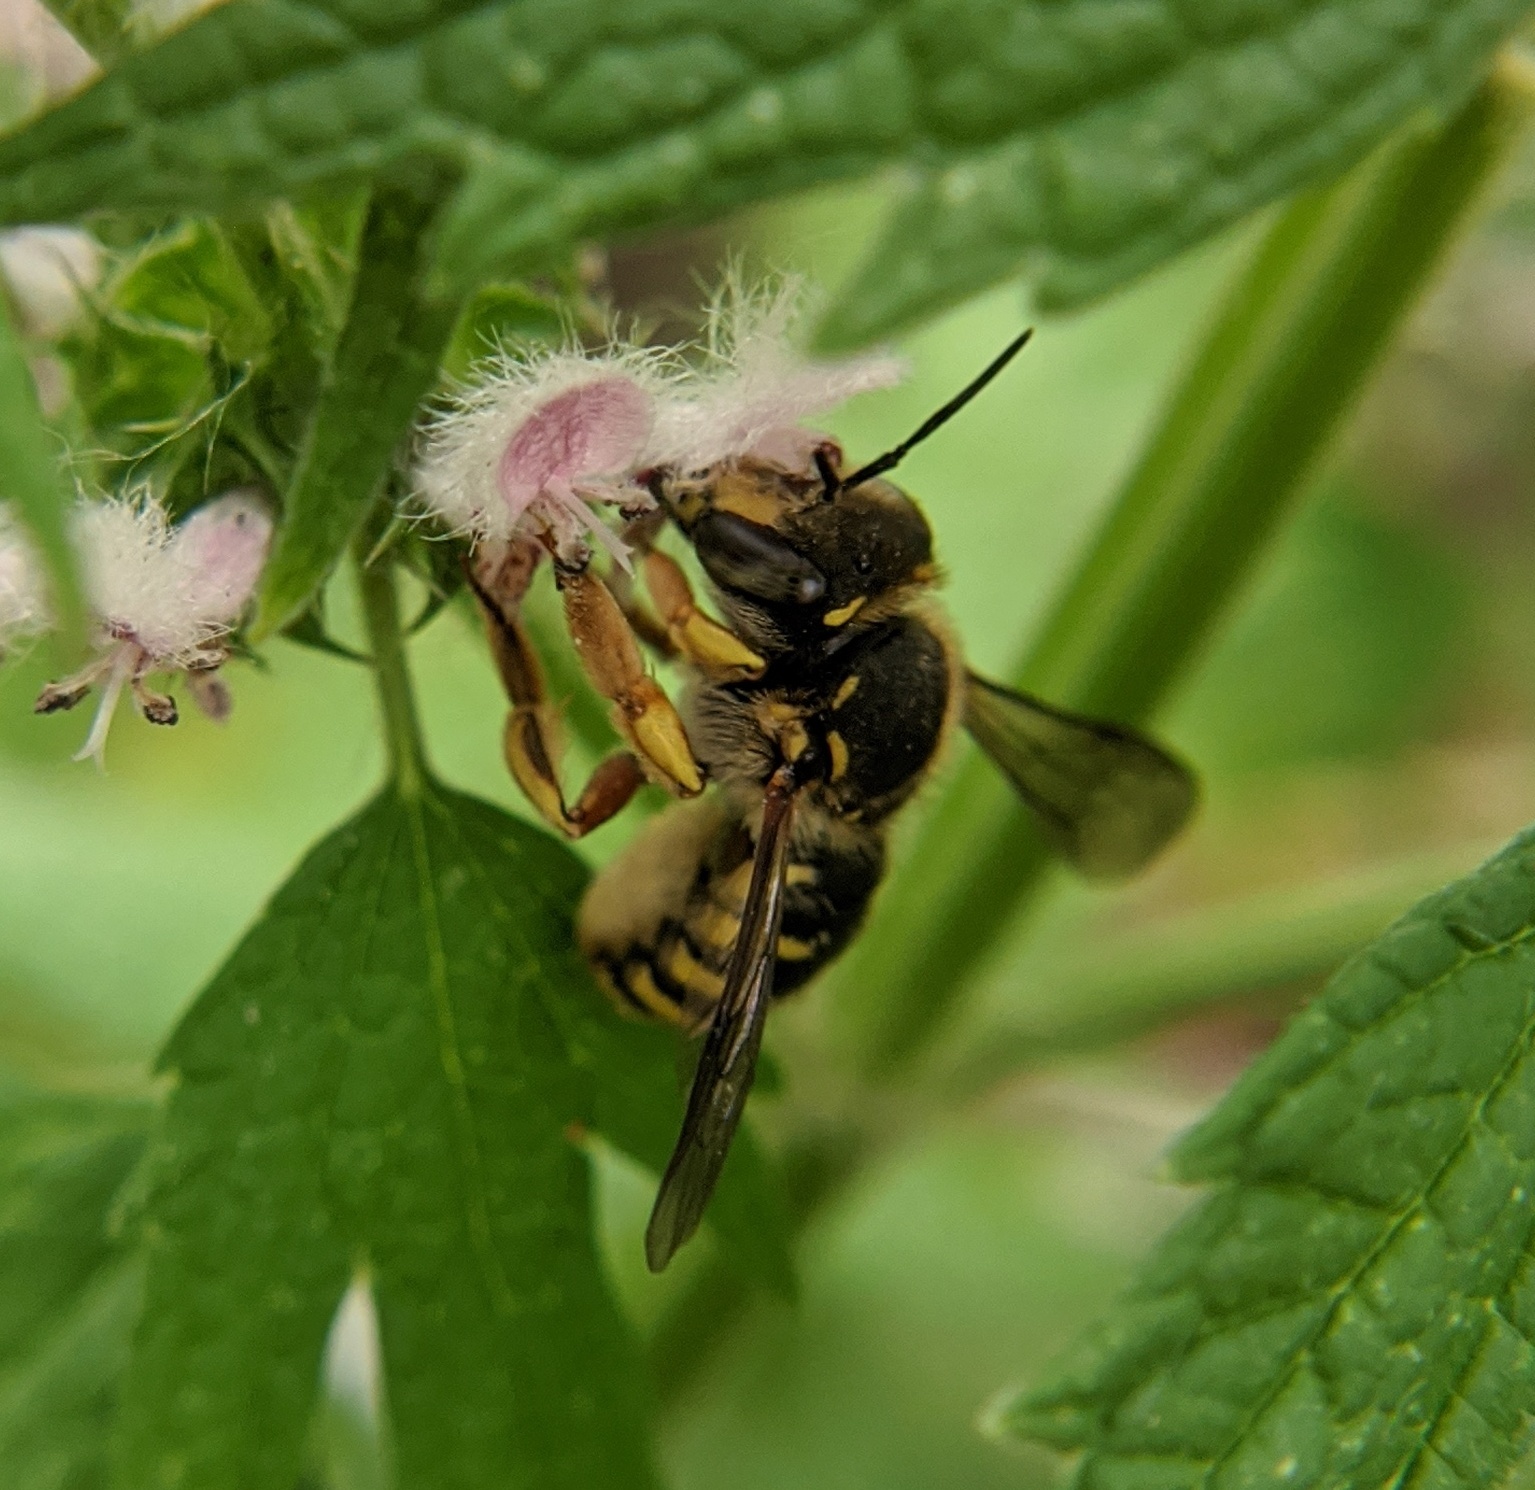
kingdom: Animalia
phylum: Arthropoda
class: Insecta
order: Hymenoptera
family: Megachilidae
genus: Anthidium
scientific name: Anthidium manicatum
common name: Wool carder bee
